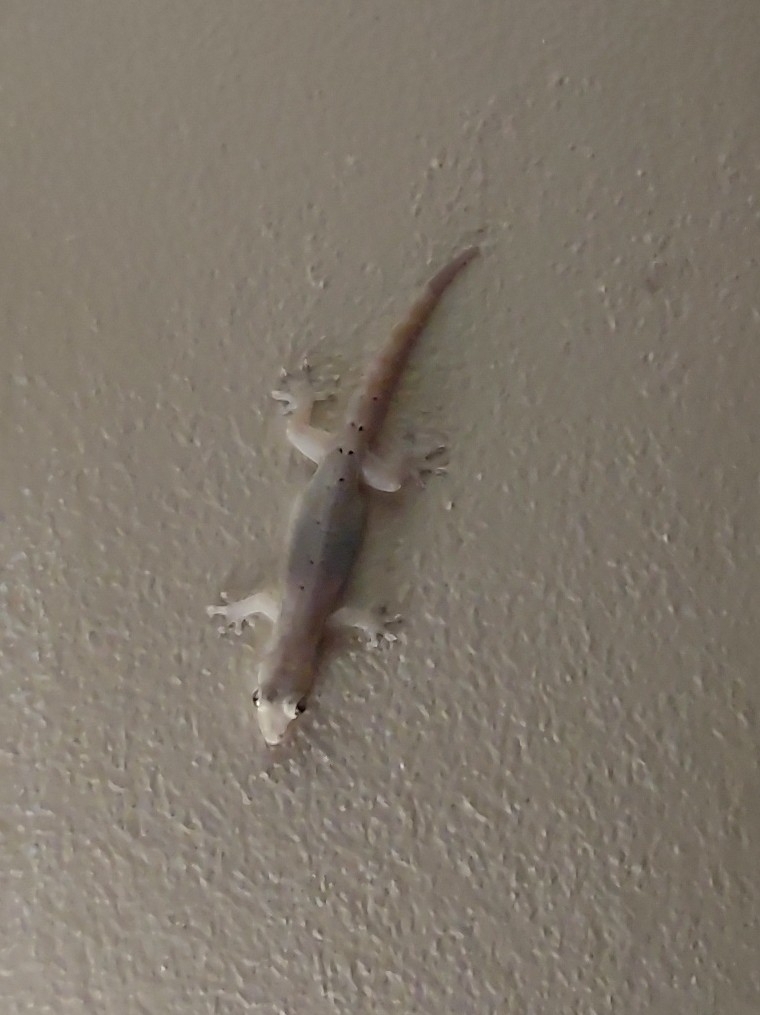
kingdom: Animalia
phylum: Chordata
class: Squamata
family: Gekkonidae
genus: Lepidodactylus
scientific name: Lepidodactylus lugubris
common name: Mourning gecko
